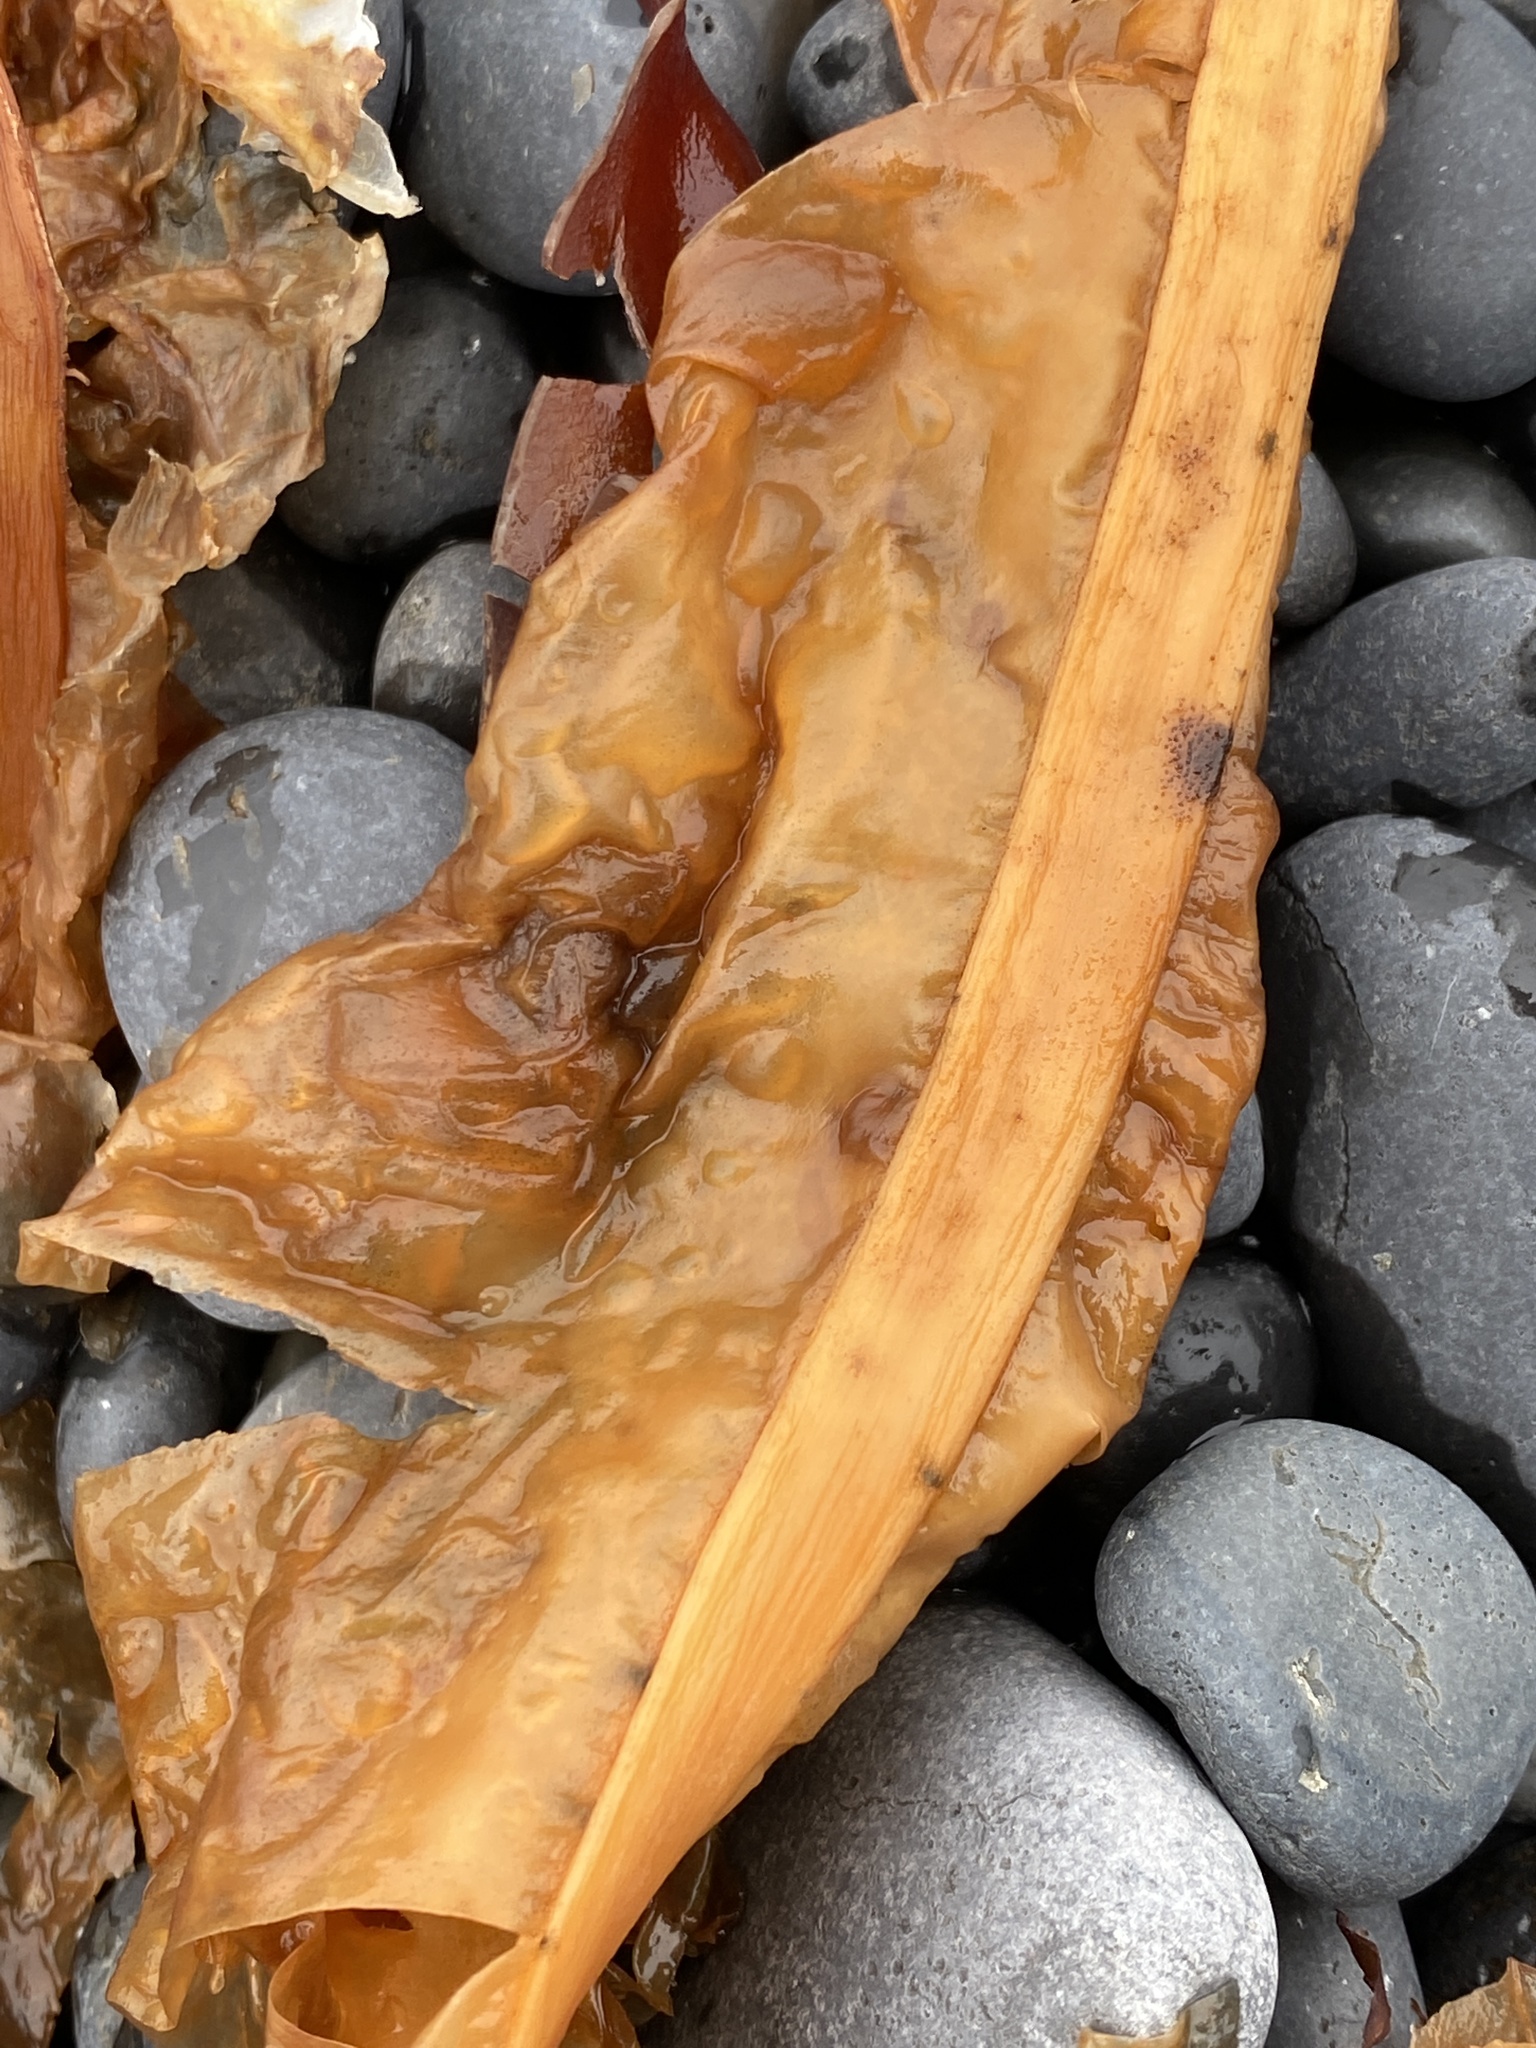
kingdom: Chromista
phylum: Ochrophyta
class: Phaeophyceae
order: Laminariales
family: Alariaceae
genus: Alaria
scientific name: Alaria esculenta
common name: Dabberlocks
